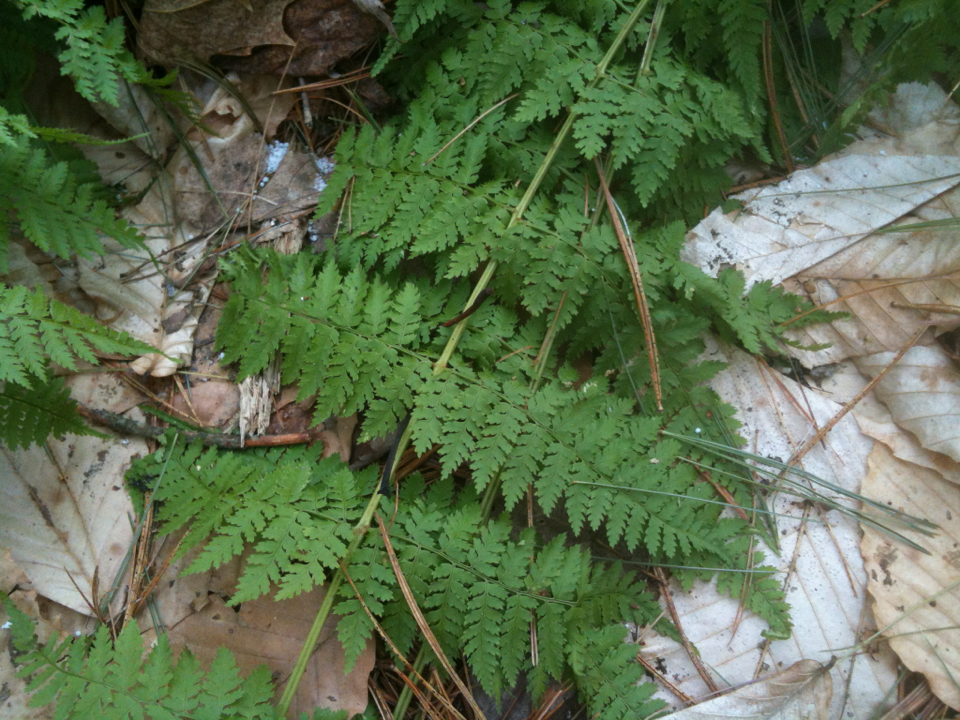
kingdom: Plantae
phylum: Tracheophyta
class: Polypodiopsida
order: Polypodiales
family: Dryopteridaceae
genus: Dryopteris
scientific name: Dryopteris intermedia
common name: Evergreen wood fern
